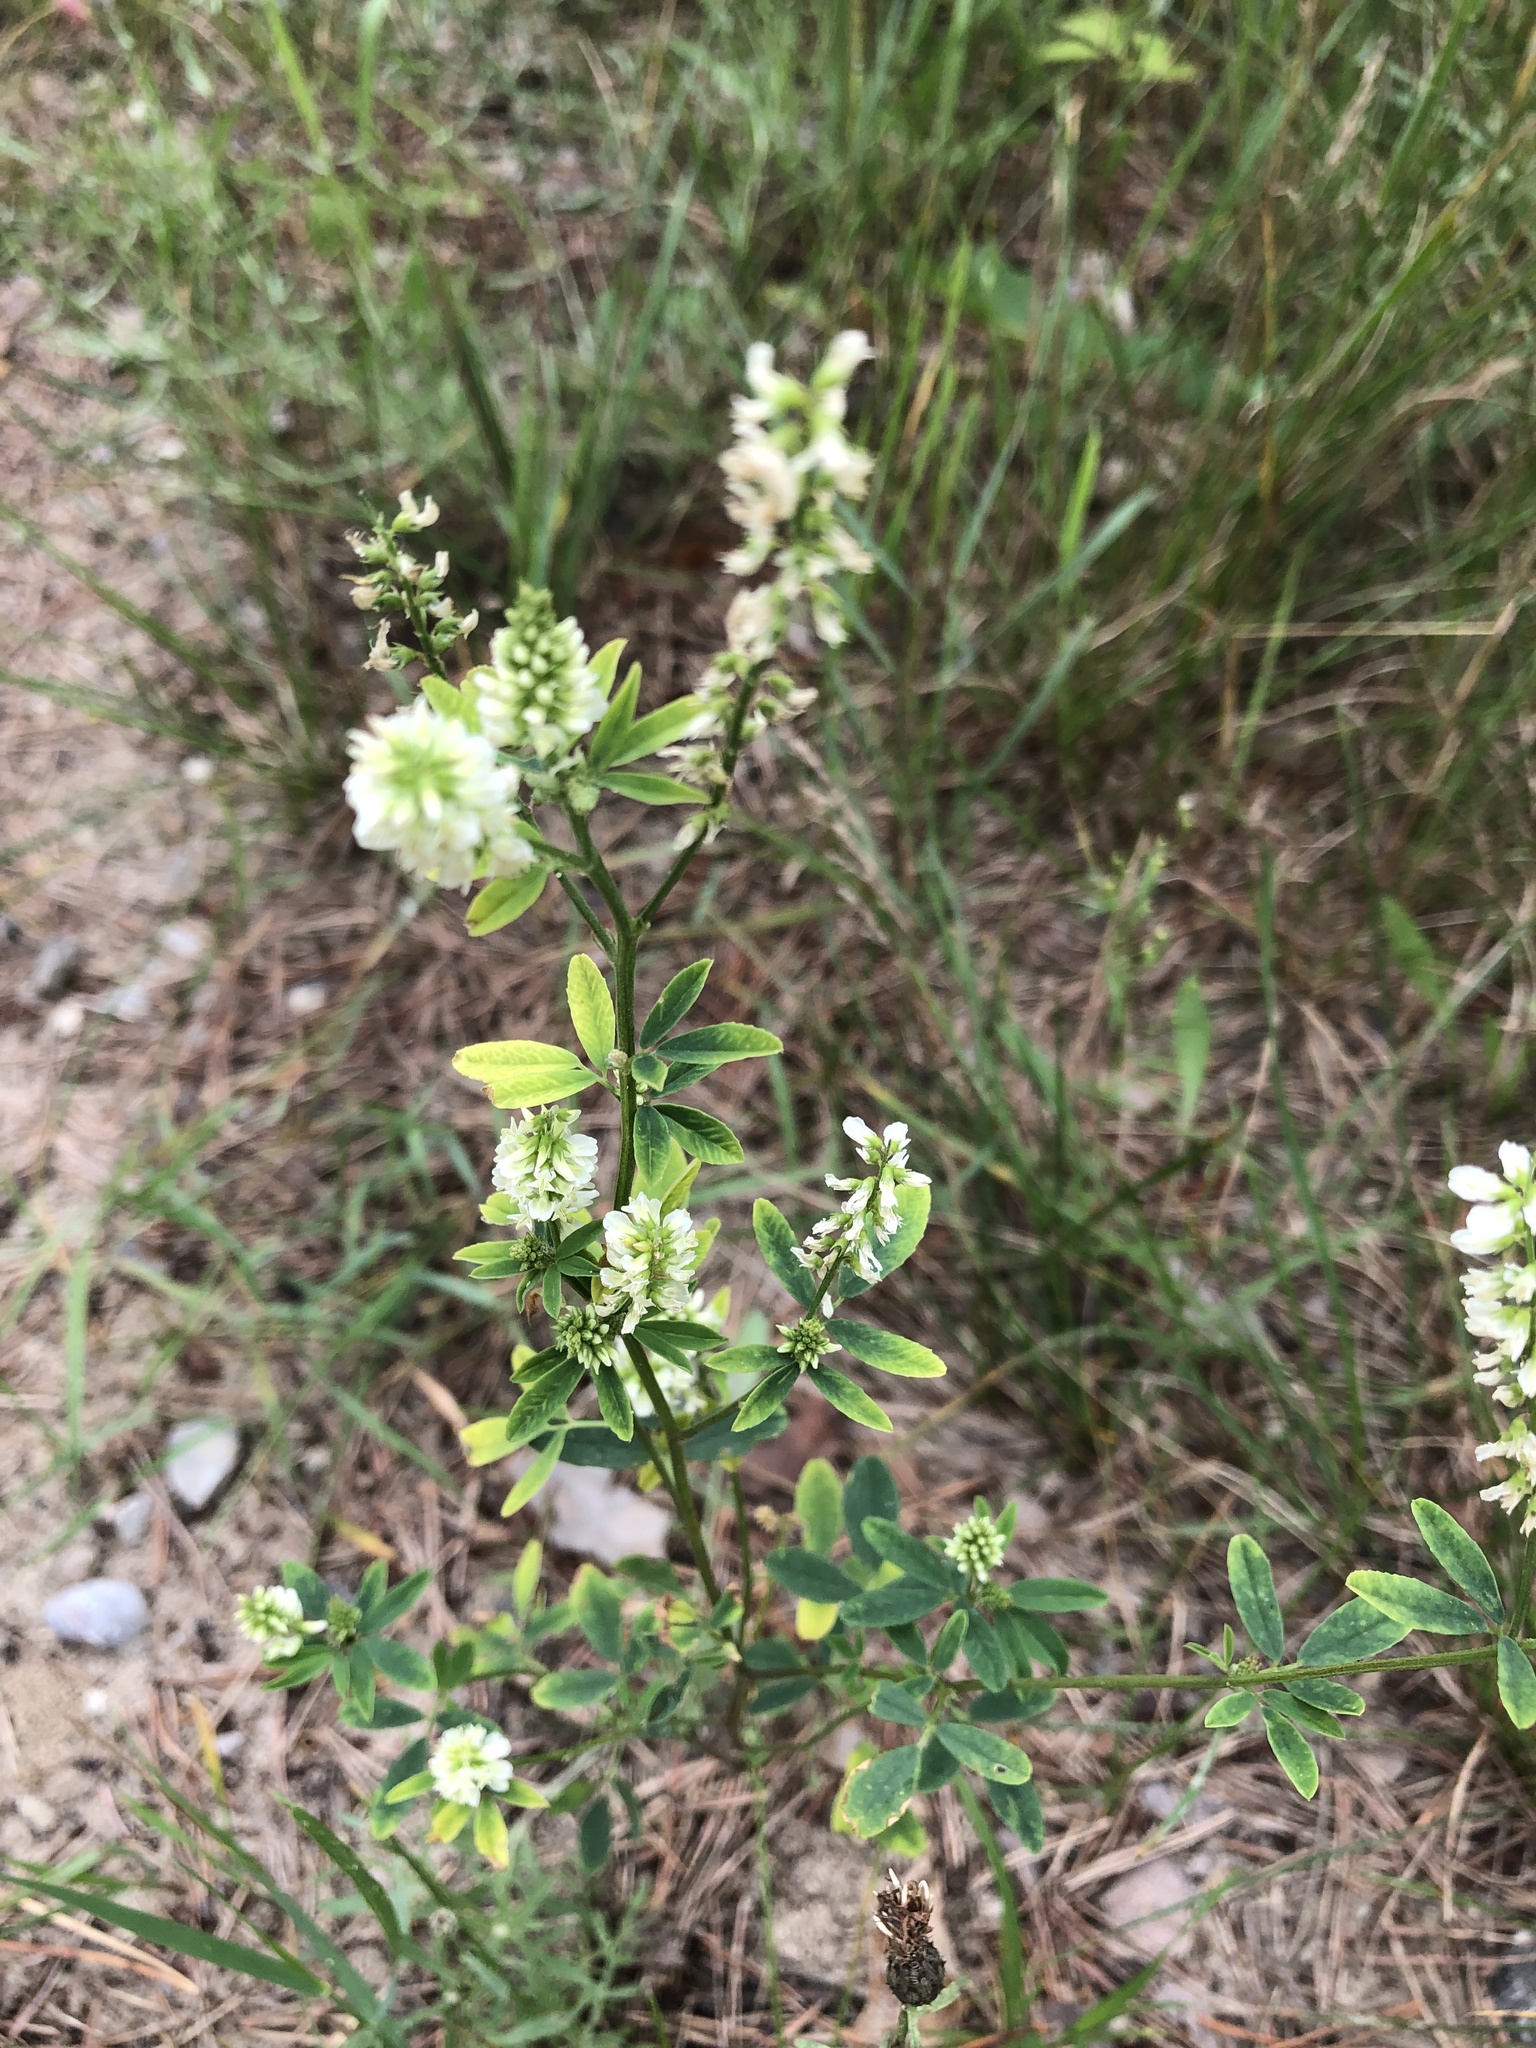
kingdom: Plantae
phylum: Tracheophyta
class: Magnoliopsida
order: Fabales
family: Fabaceae
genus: Melilotus
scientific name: Melilotus albus
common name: White melilot
